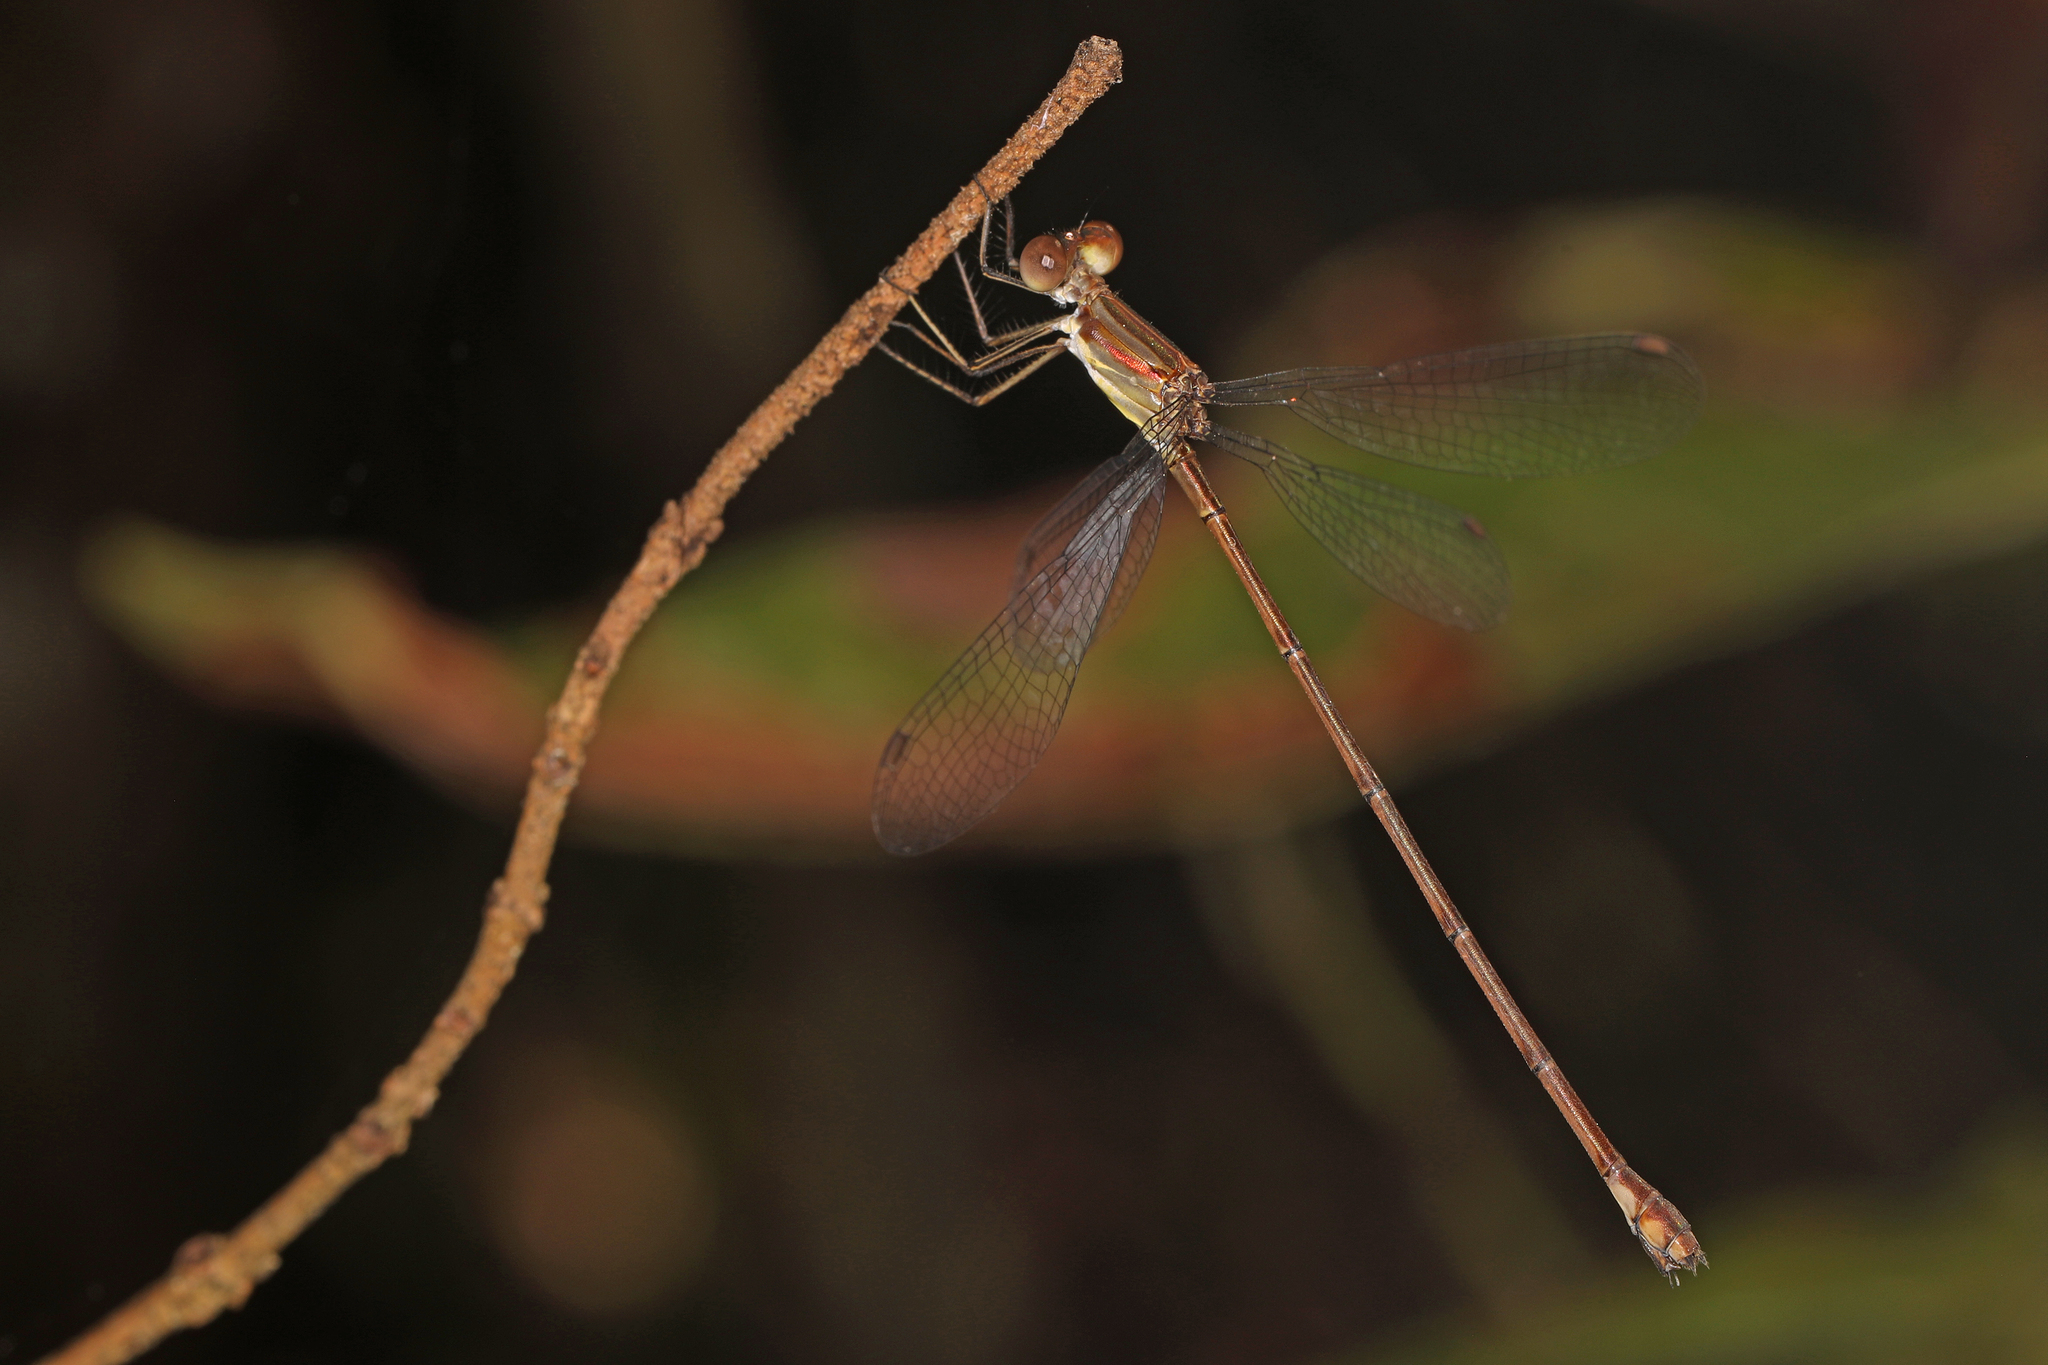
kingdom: Animalia
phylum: Arthropoda
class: Insecta
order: Odonata
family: Lestidae
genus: Lestes
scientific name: Lestes tenuatus
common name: Blue-striped spreadwing
